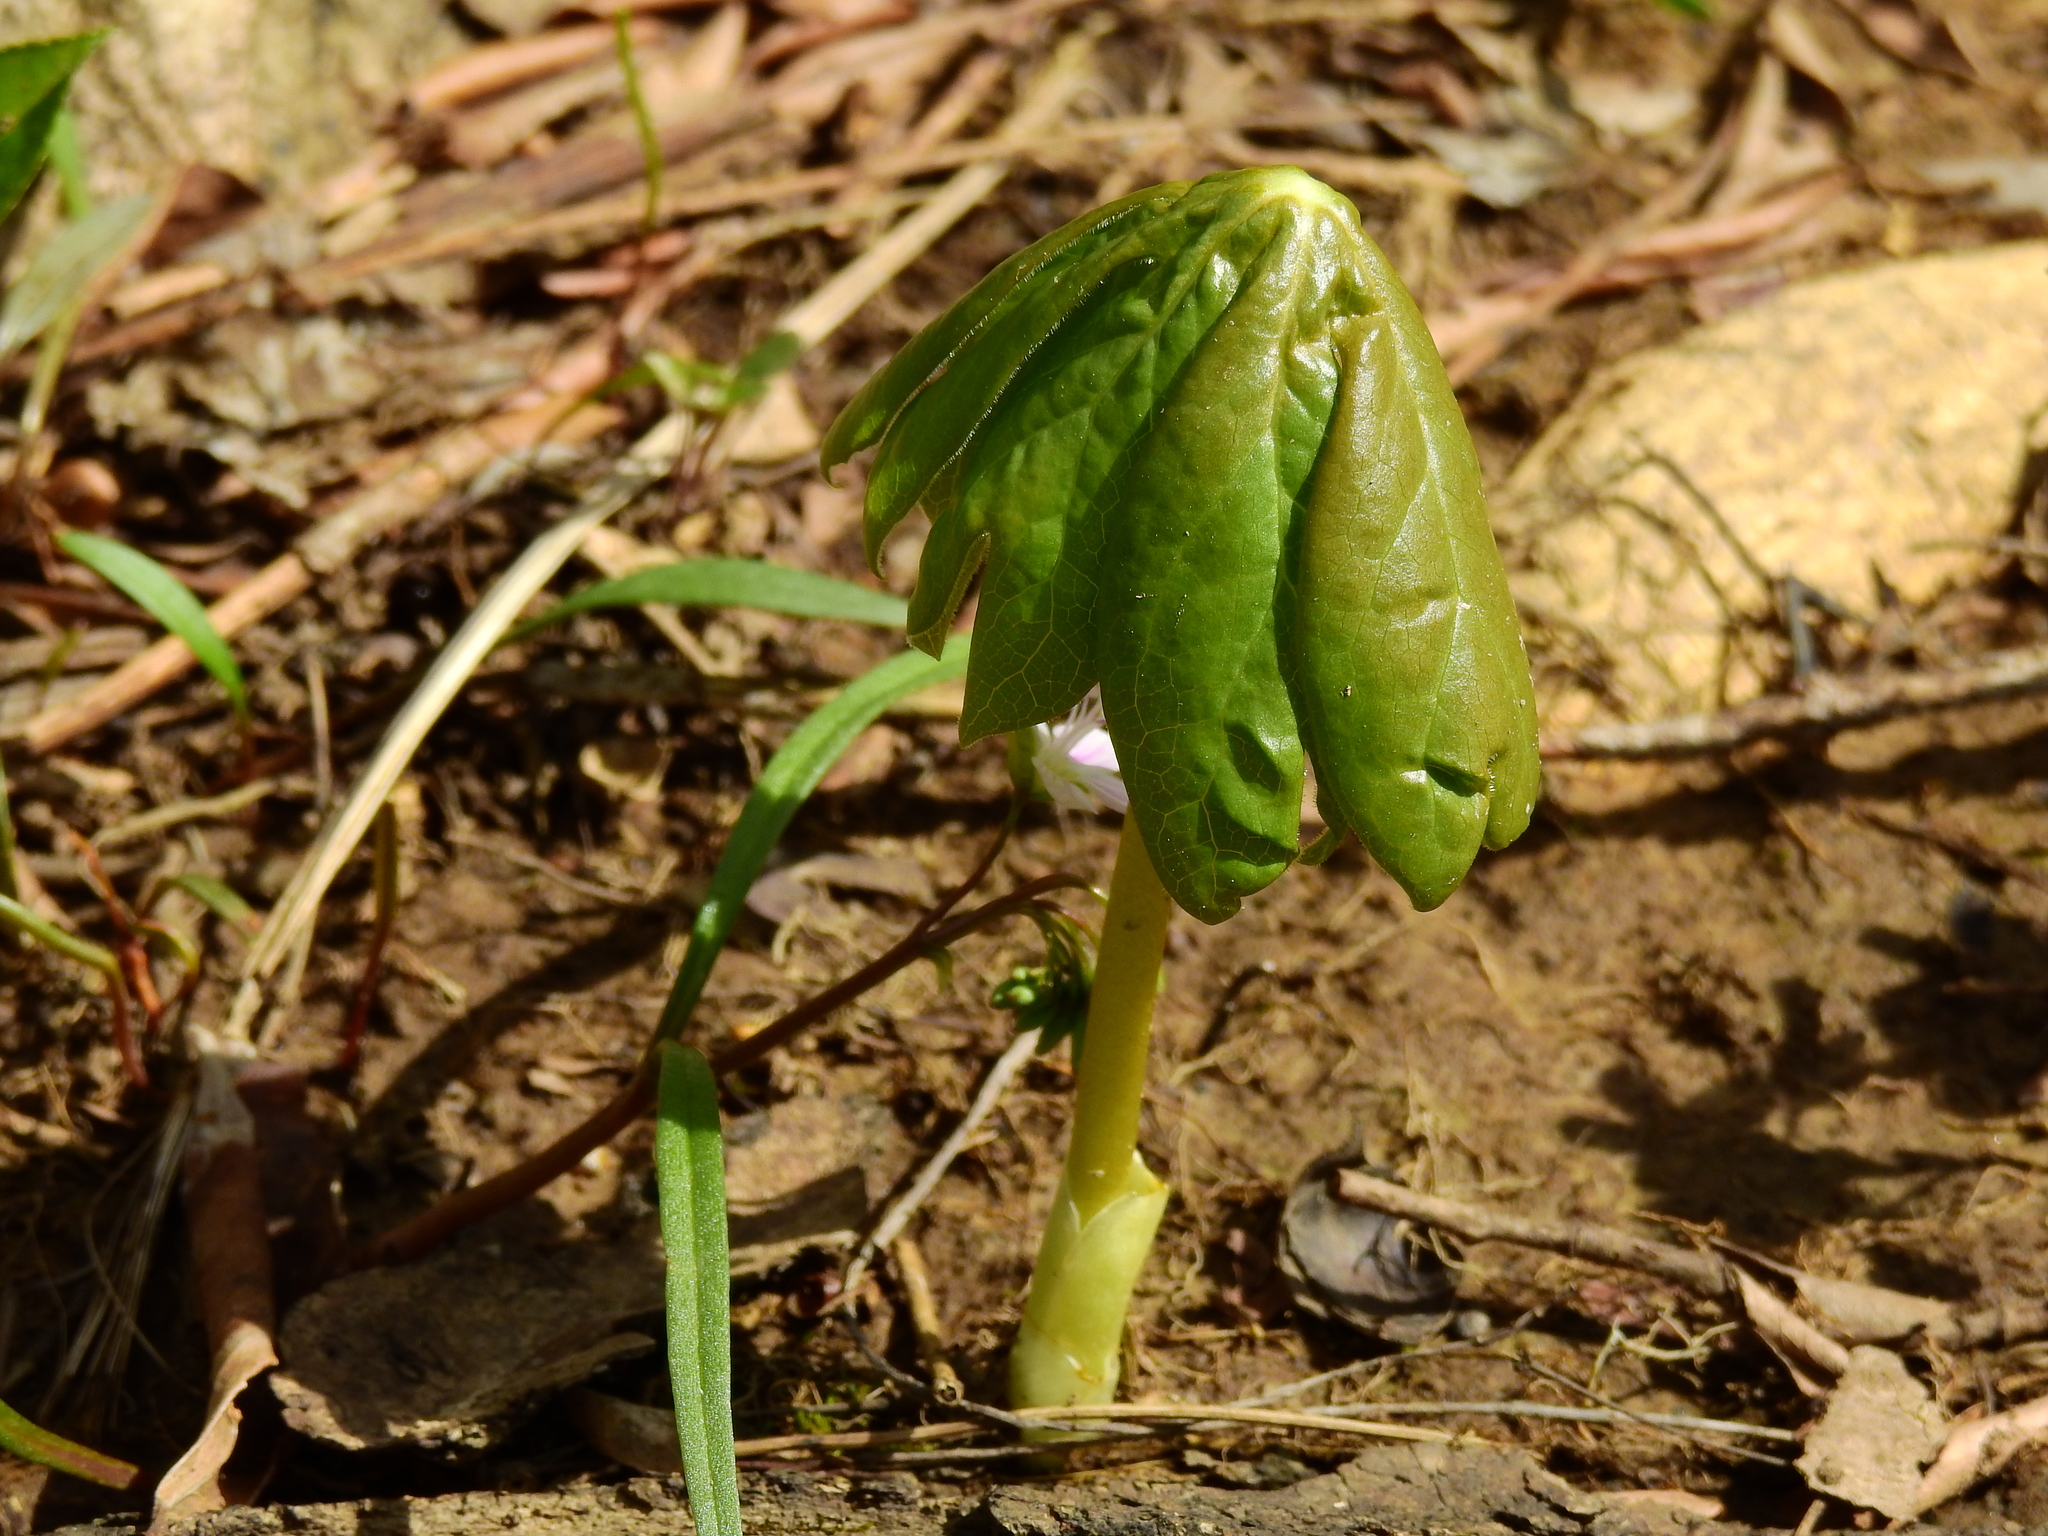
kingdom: Plantae
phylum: Tracheophyta
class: Magnoliopsida
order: Ranunculales
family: Berberidaceae
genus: Podophyllum
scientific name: Podophyllum peltatum
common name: Wild mandrake
